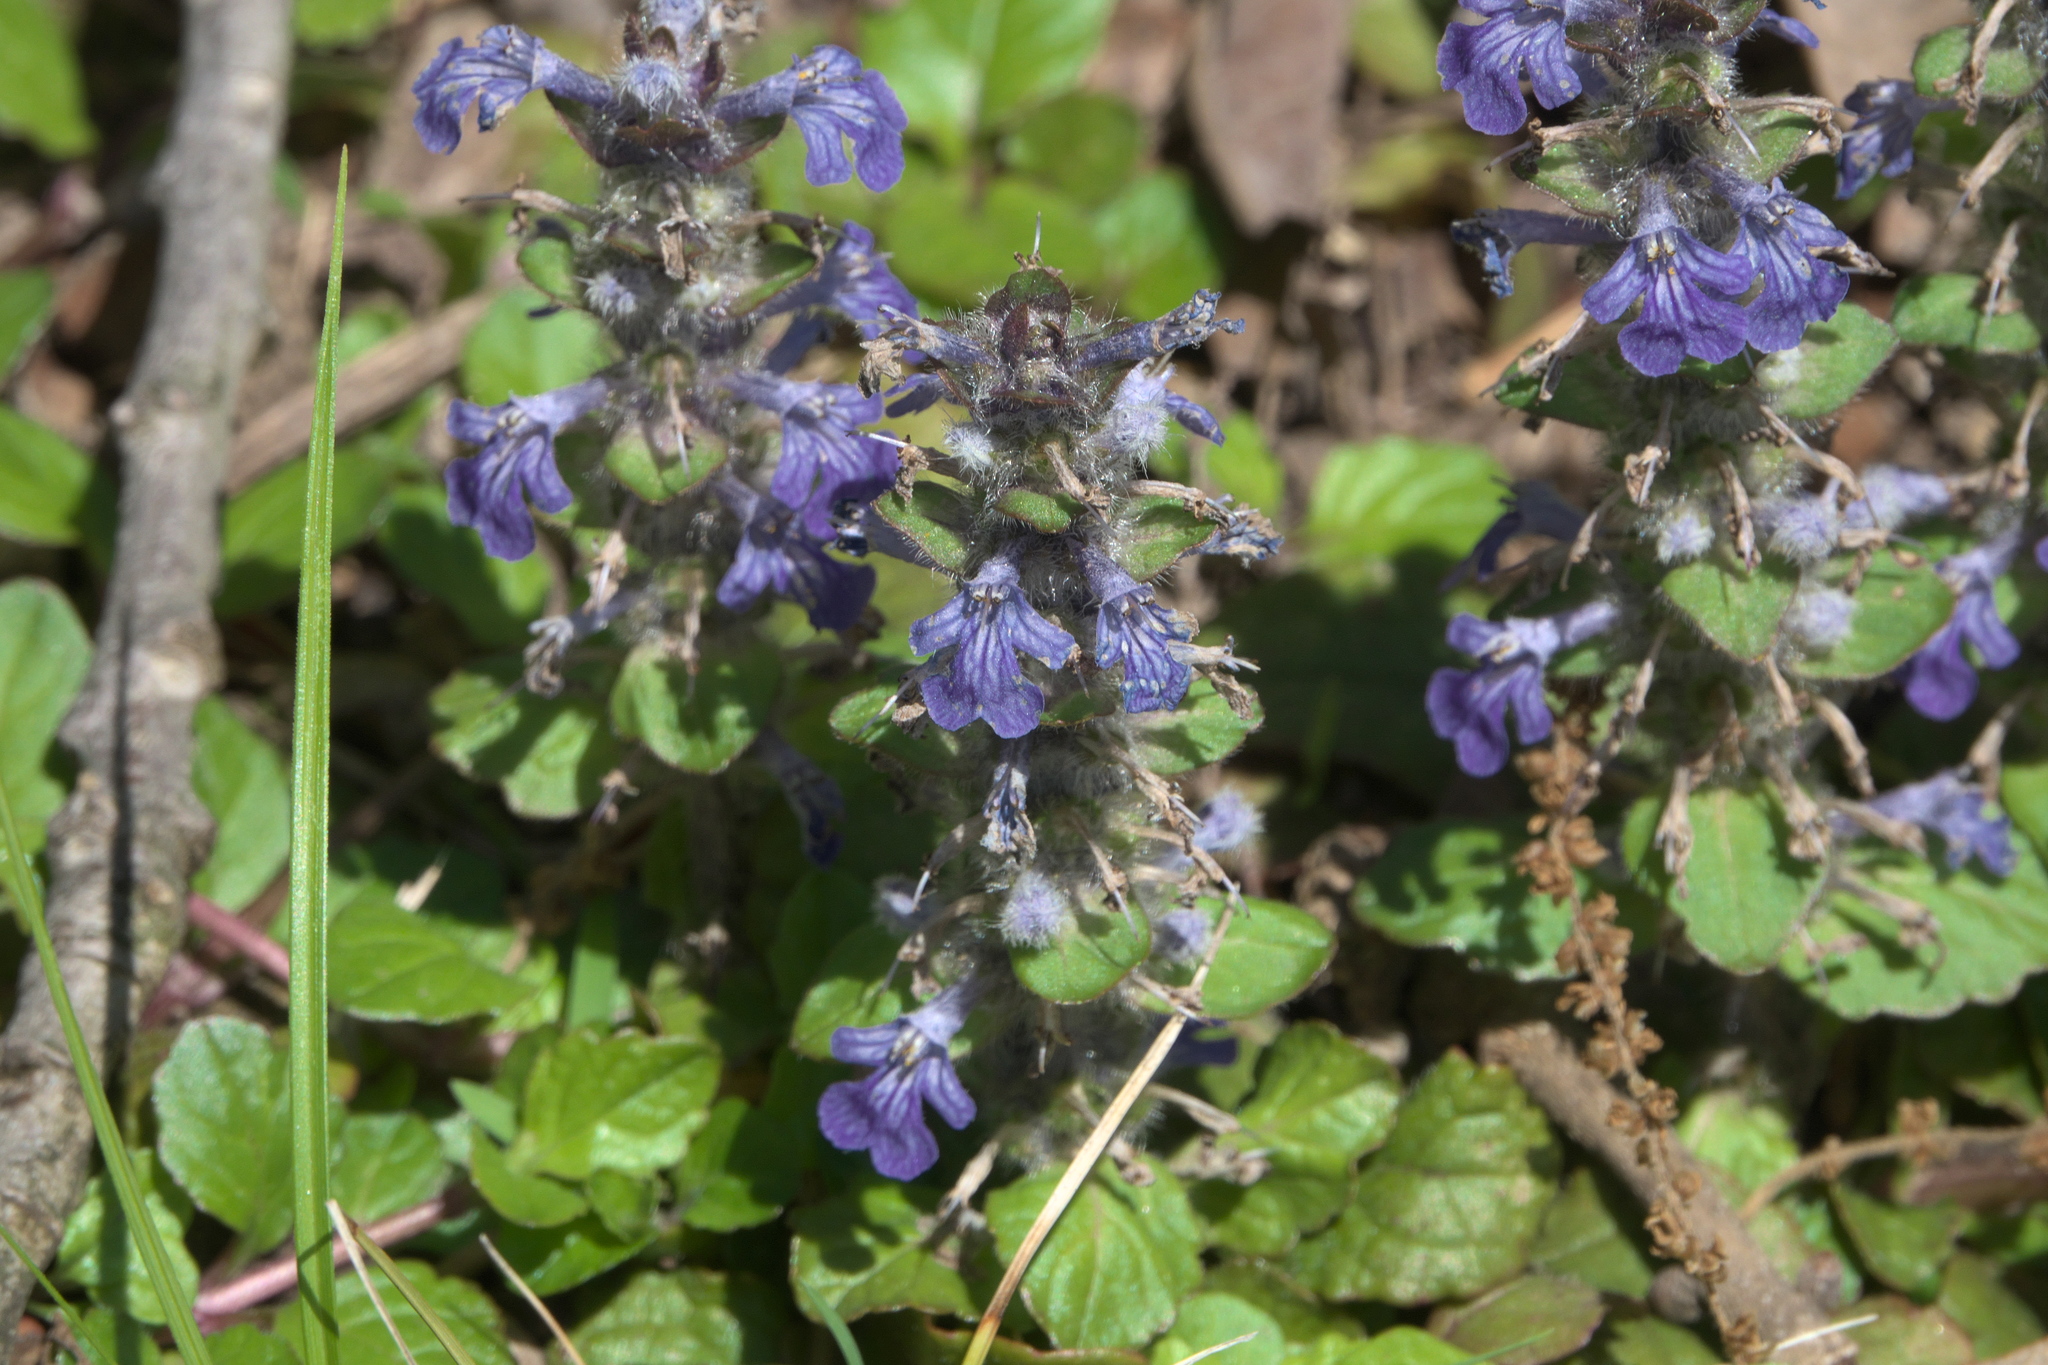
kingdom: Plantae
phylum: Tracheophyta
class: Magnoliopsida
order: Lamiales
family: Lamiaceae
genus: Ajuga
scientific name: Ajuga reptans
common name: Bugle
